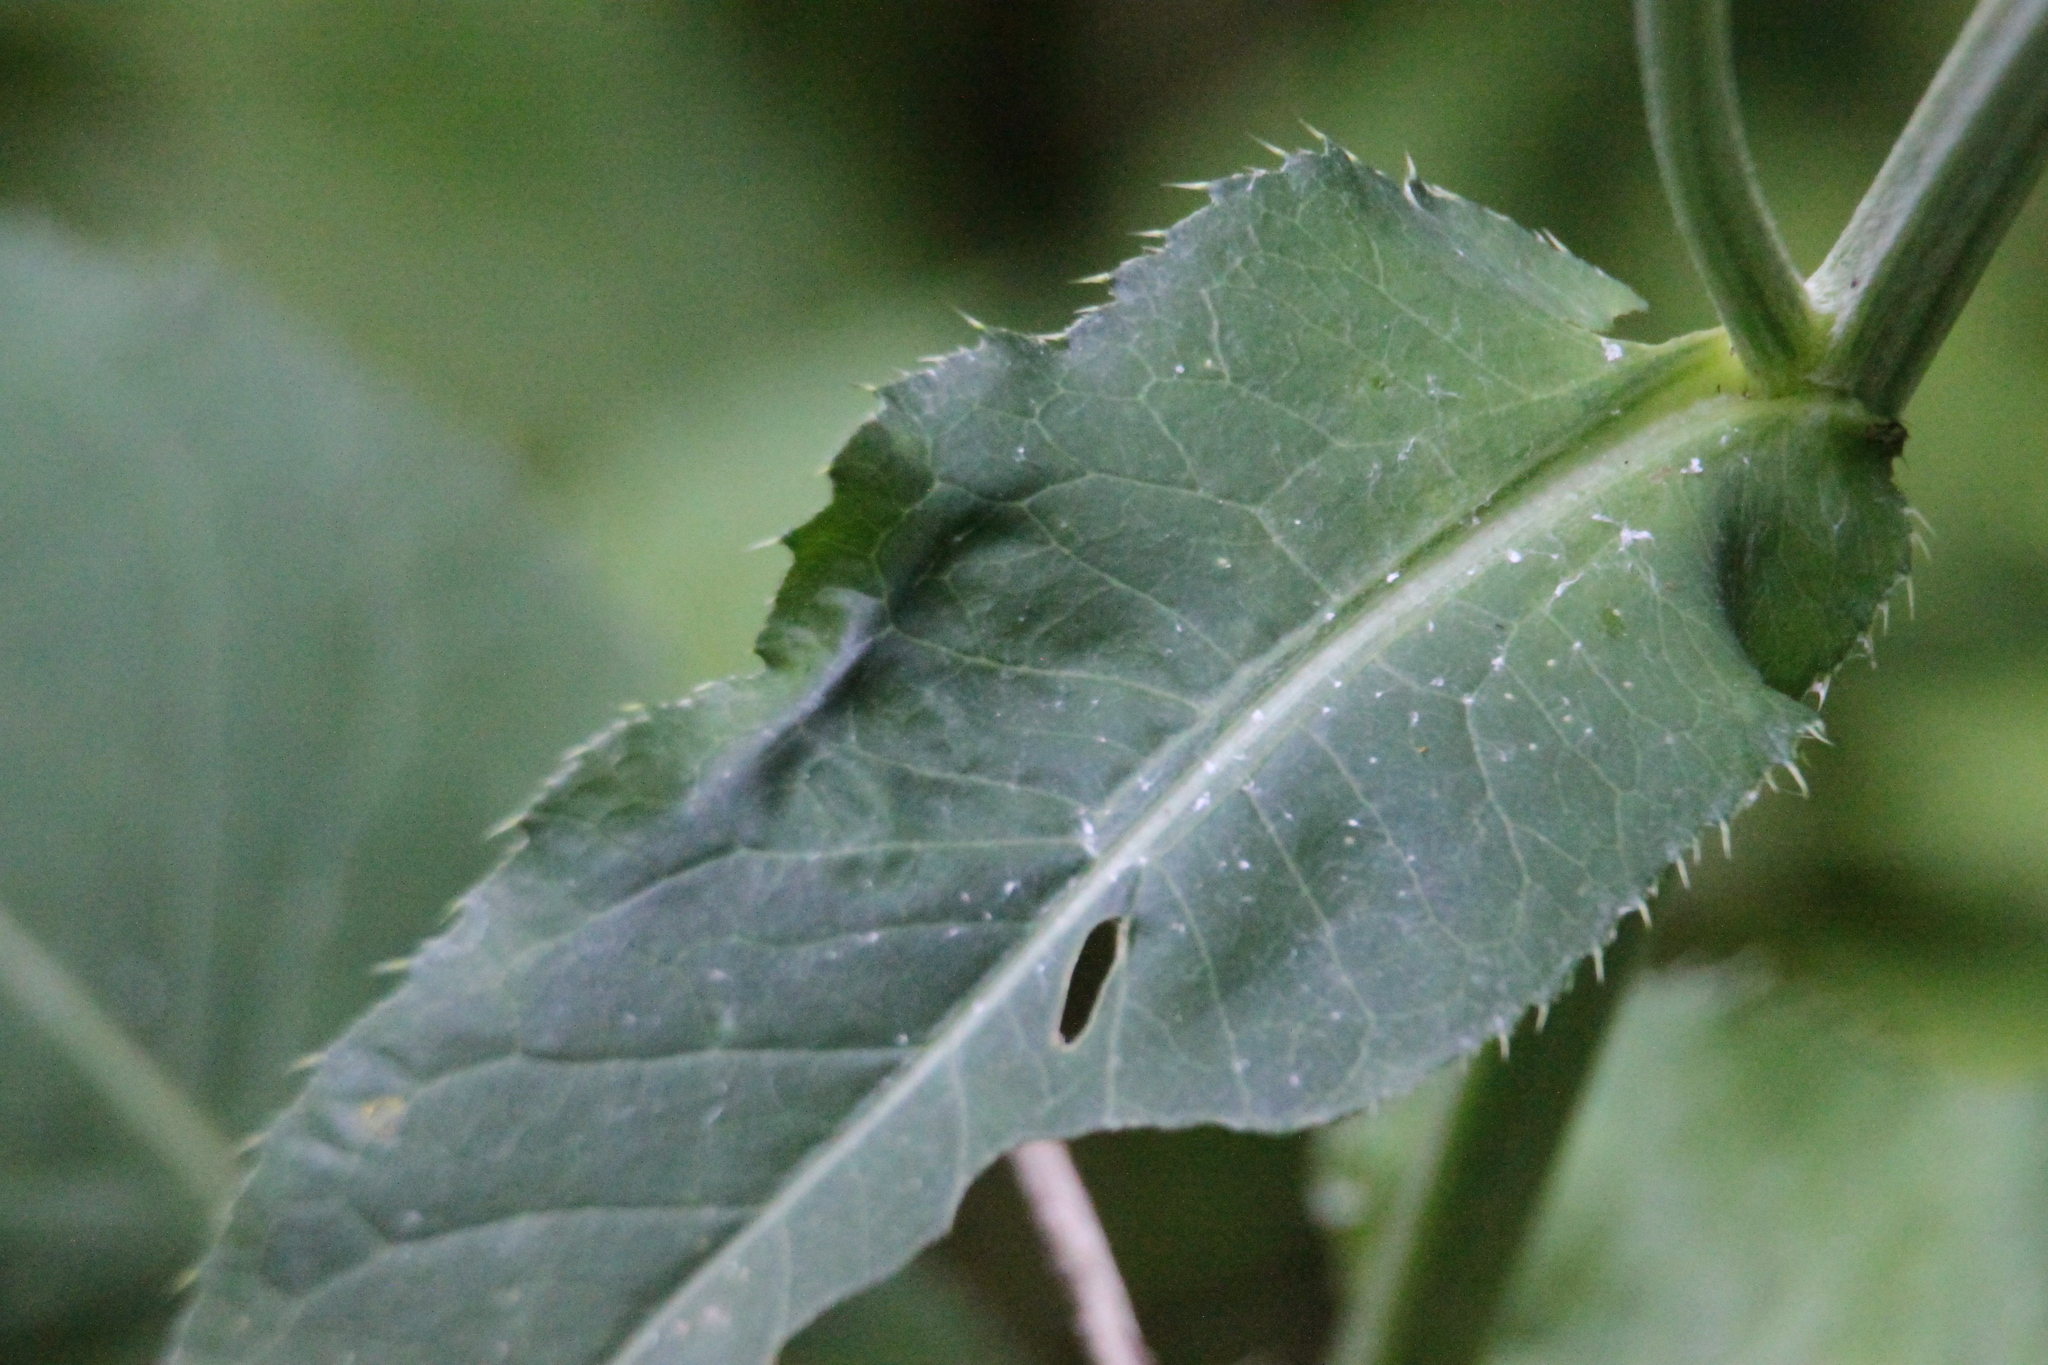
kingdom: Plantae
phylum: Tracheophyta
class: Magnoliopsida
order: Asterales
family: Asteraceae
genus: Cirsium
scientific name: Cirsium heterophyllum
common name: Melancholy thistle
